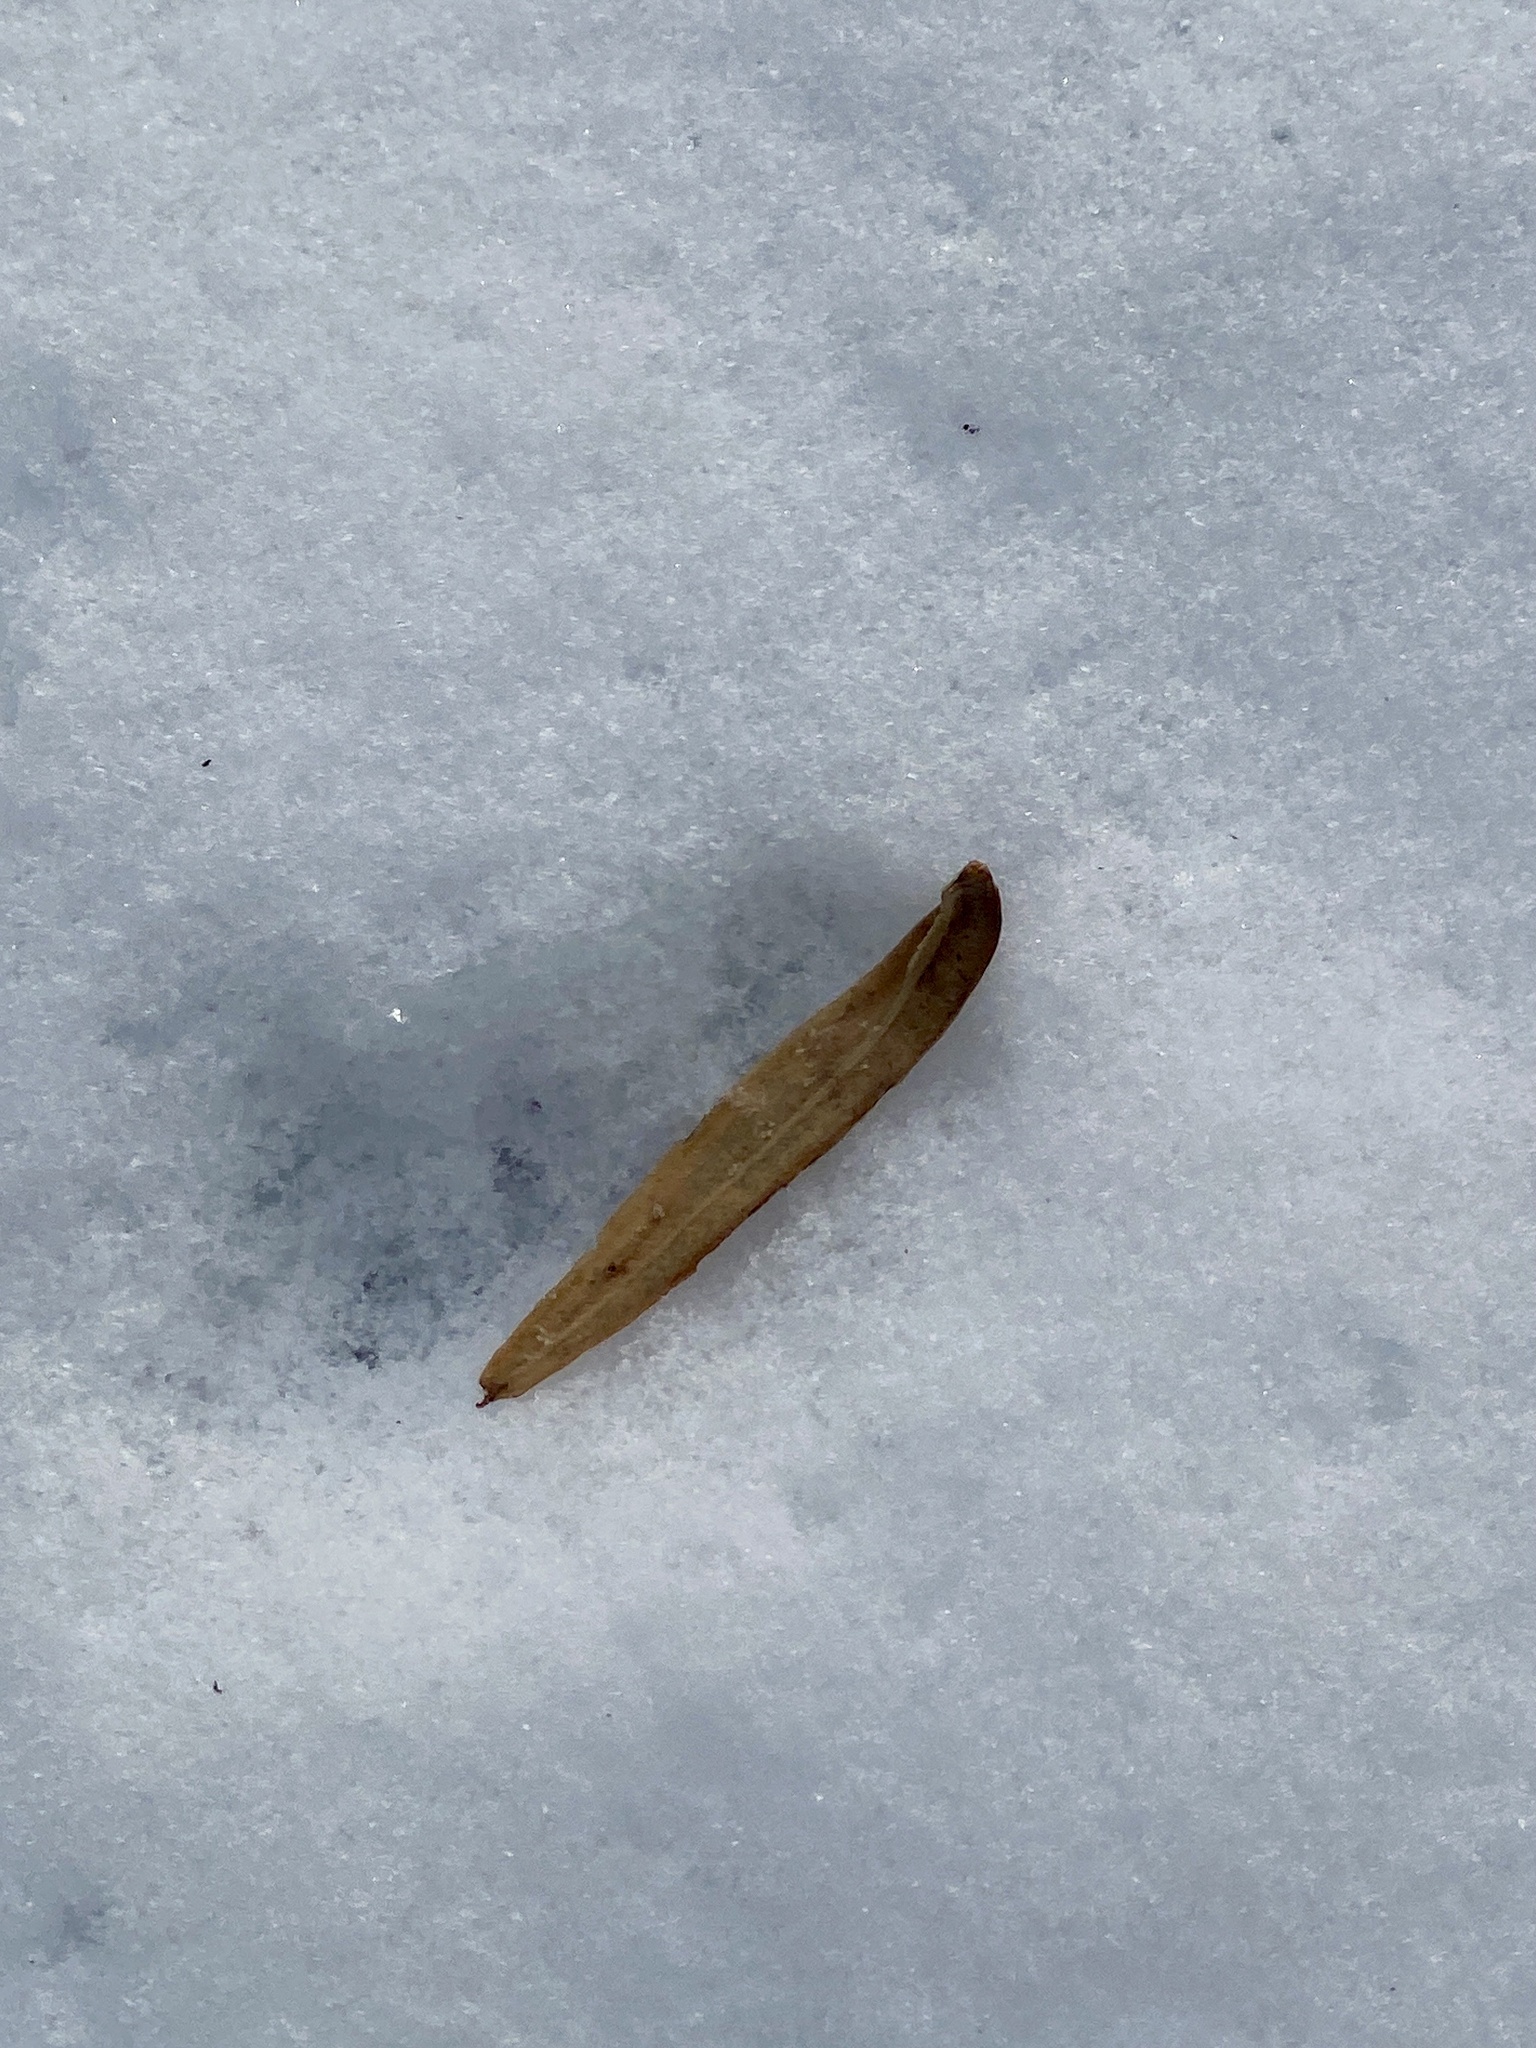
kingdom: Plantae
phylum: Tracheophyta
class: Magnoliopsida
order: Magnoliales
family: Magnoliaceae
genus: Liriodendron
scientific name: Liriodendron tulipifera
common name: Tulip tree
